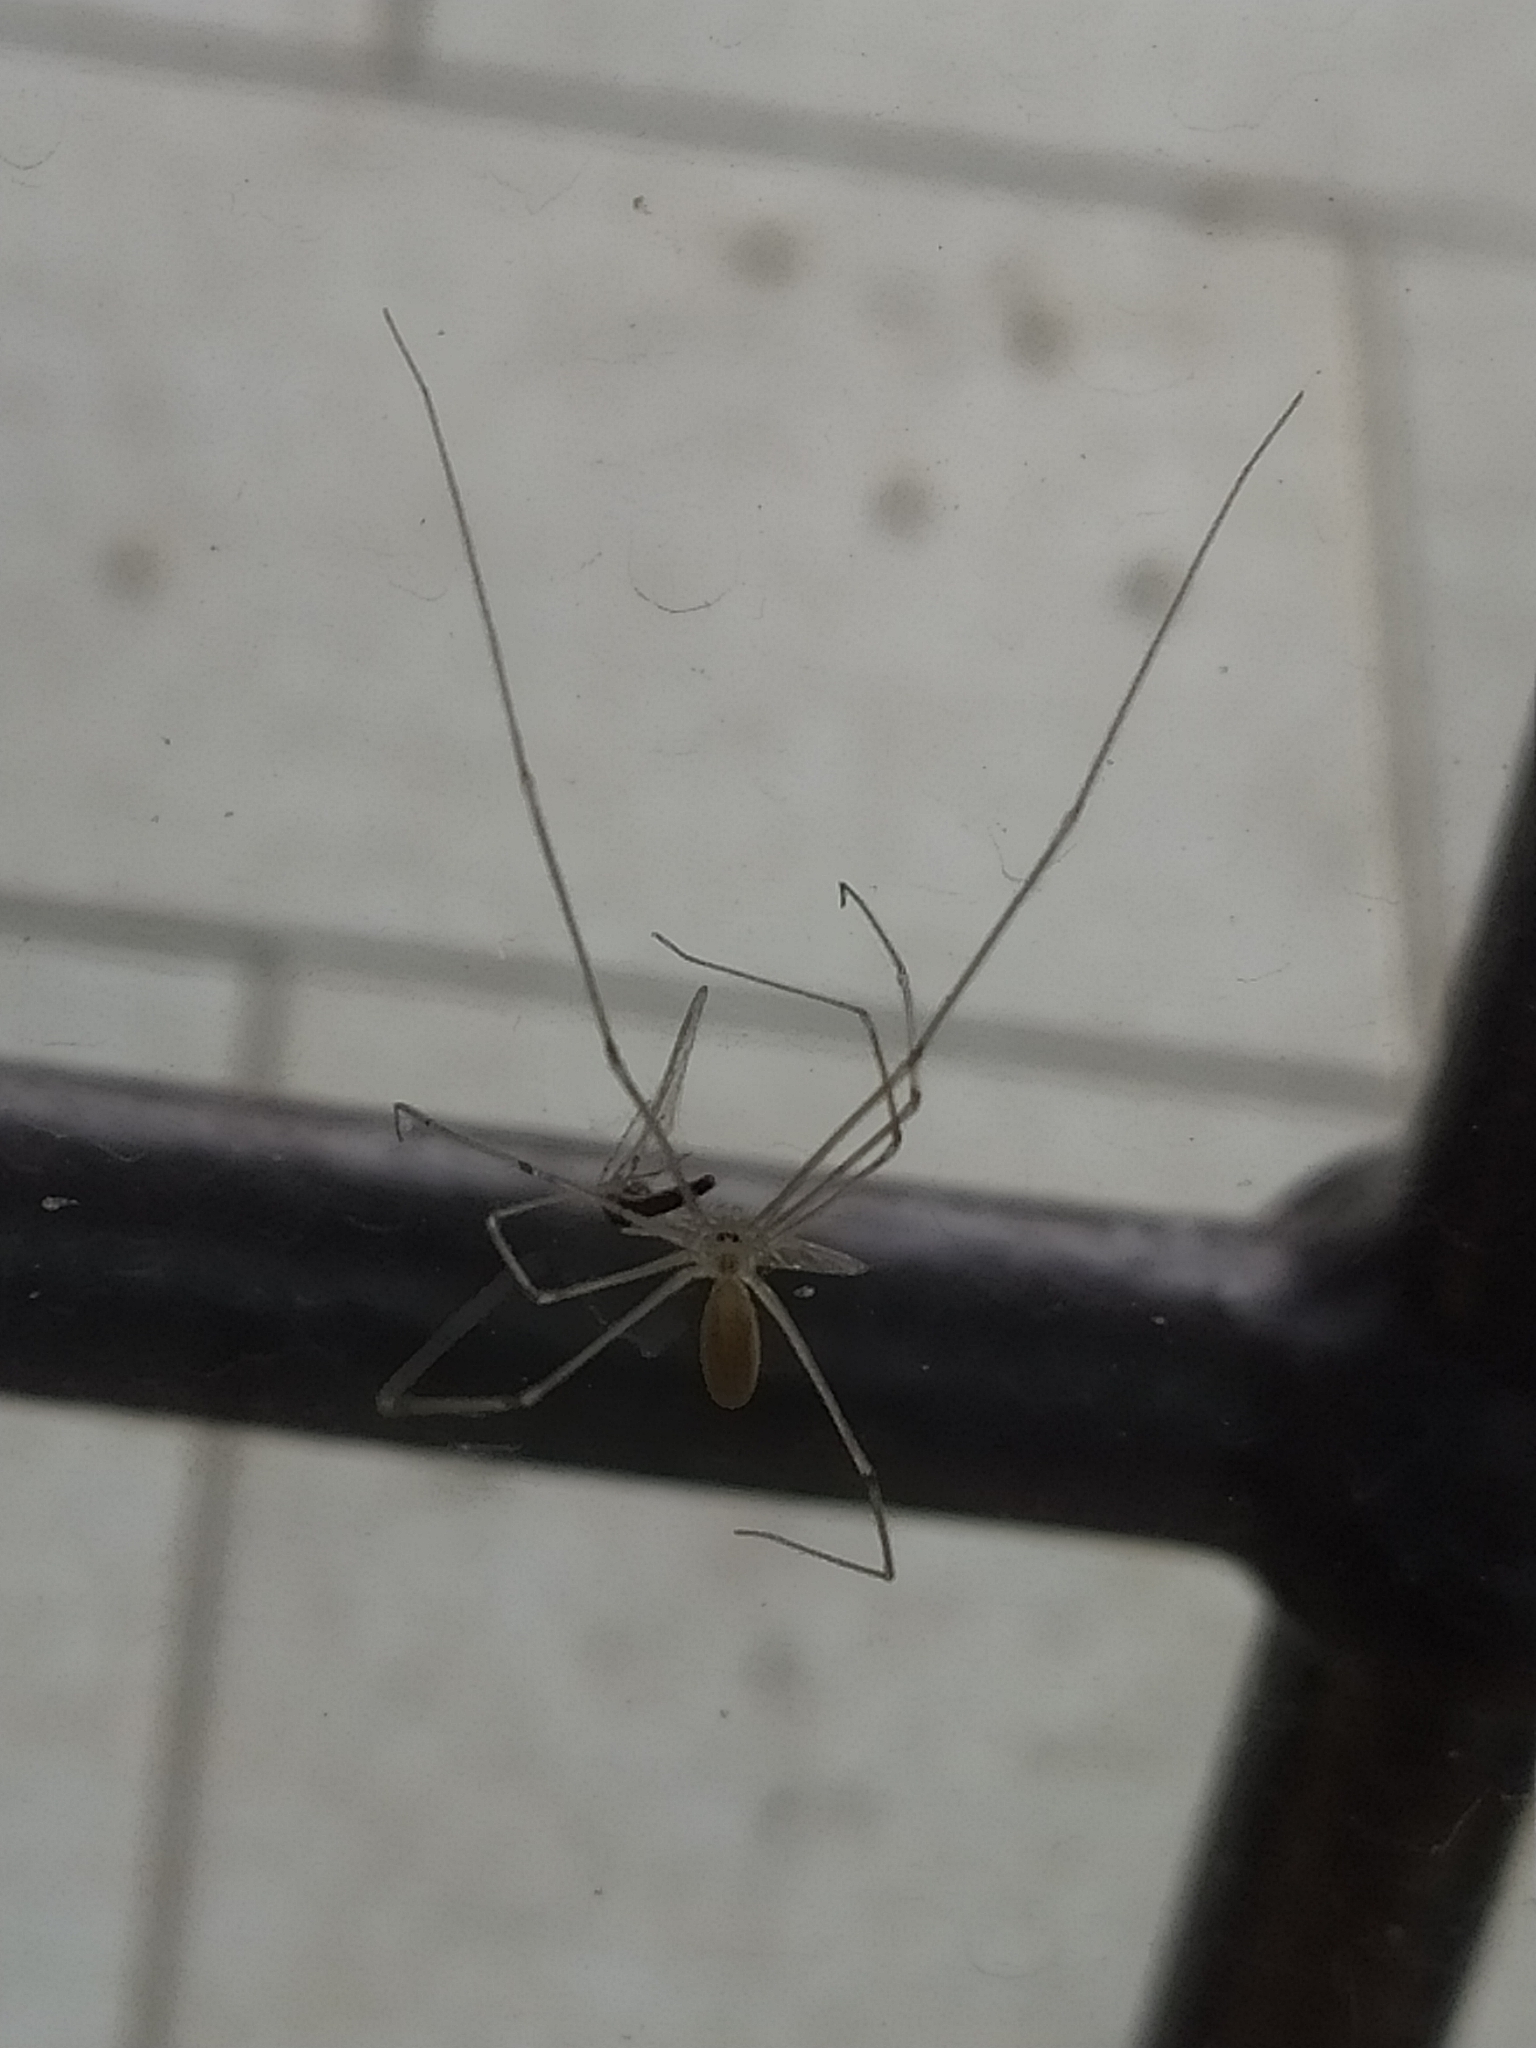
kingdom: Animalia
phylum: Arthropoda
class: Arachnida
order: Araneae
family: Pholcidae
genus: Pholcus
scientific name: Pholcus phalangioides
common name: Longbodied cellar spider
